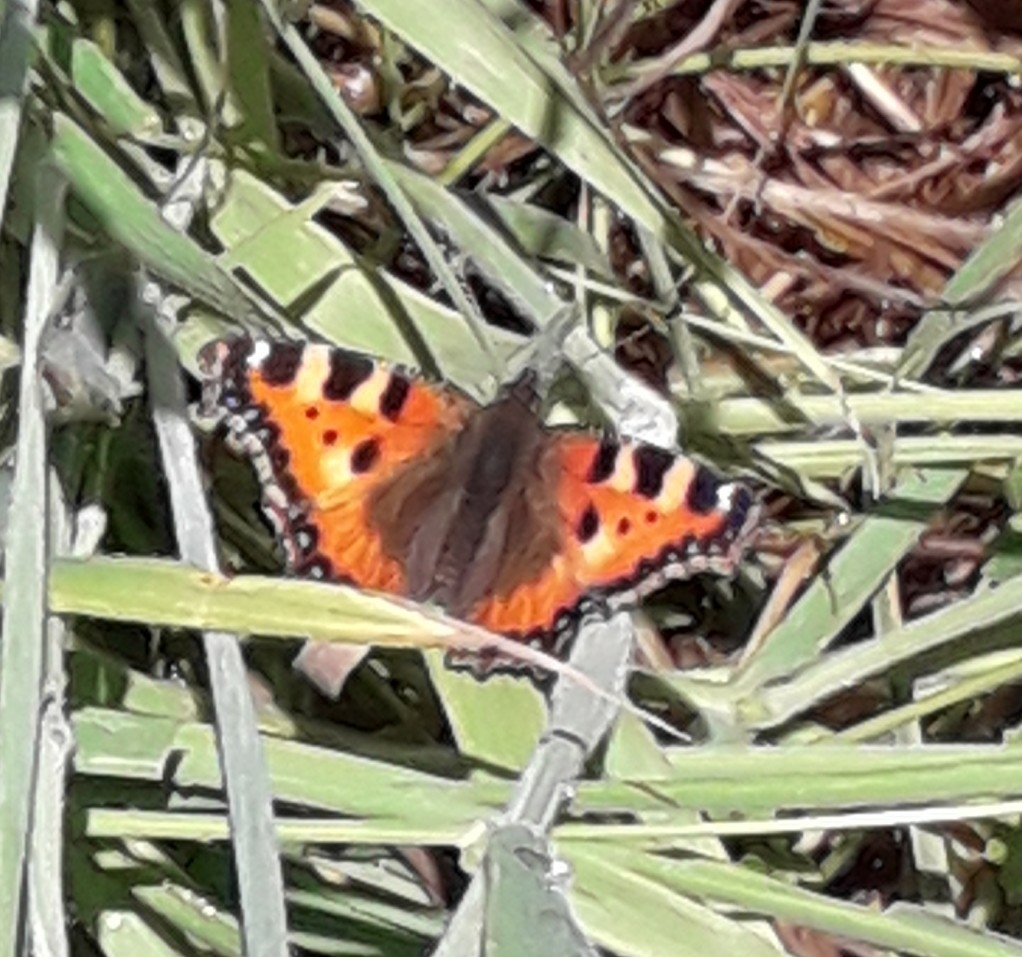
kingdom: Animalia
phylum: Arthropoda
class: Insecta
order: Lepidoptera
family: Nymphalidae
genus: Aglais
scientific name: Aglais urticae
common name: Small tortoiseshell
